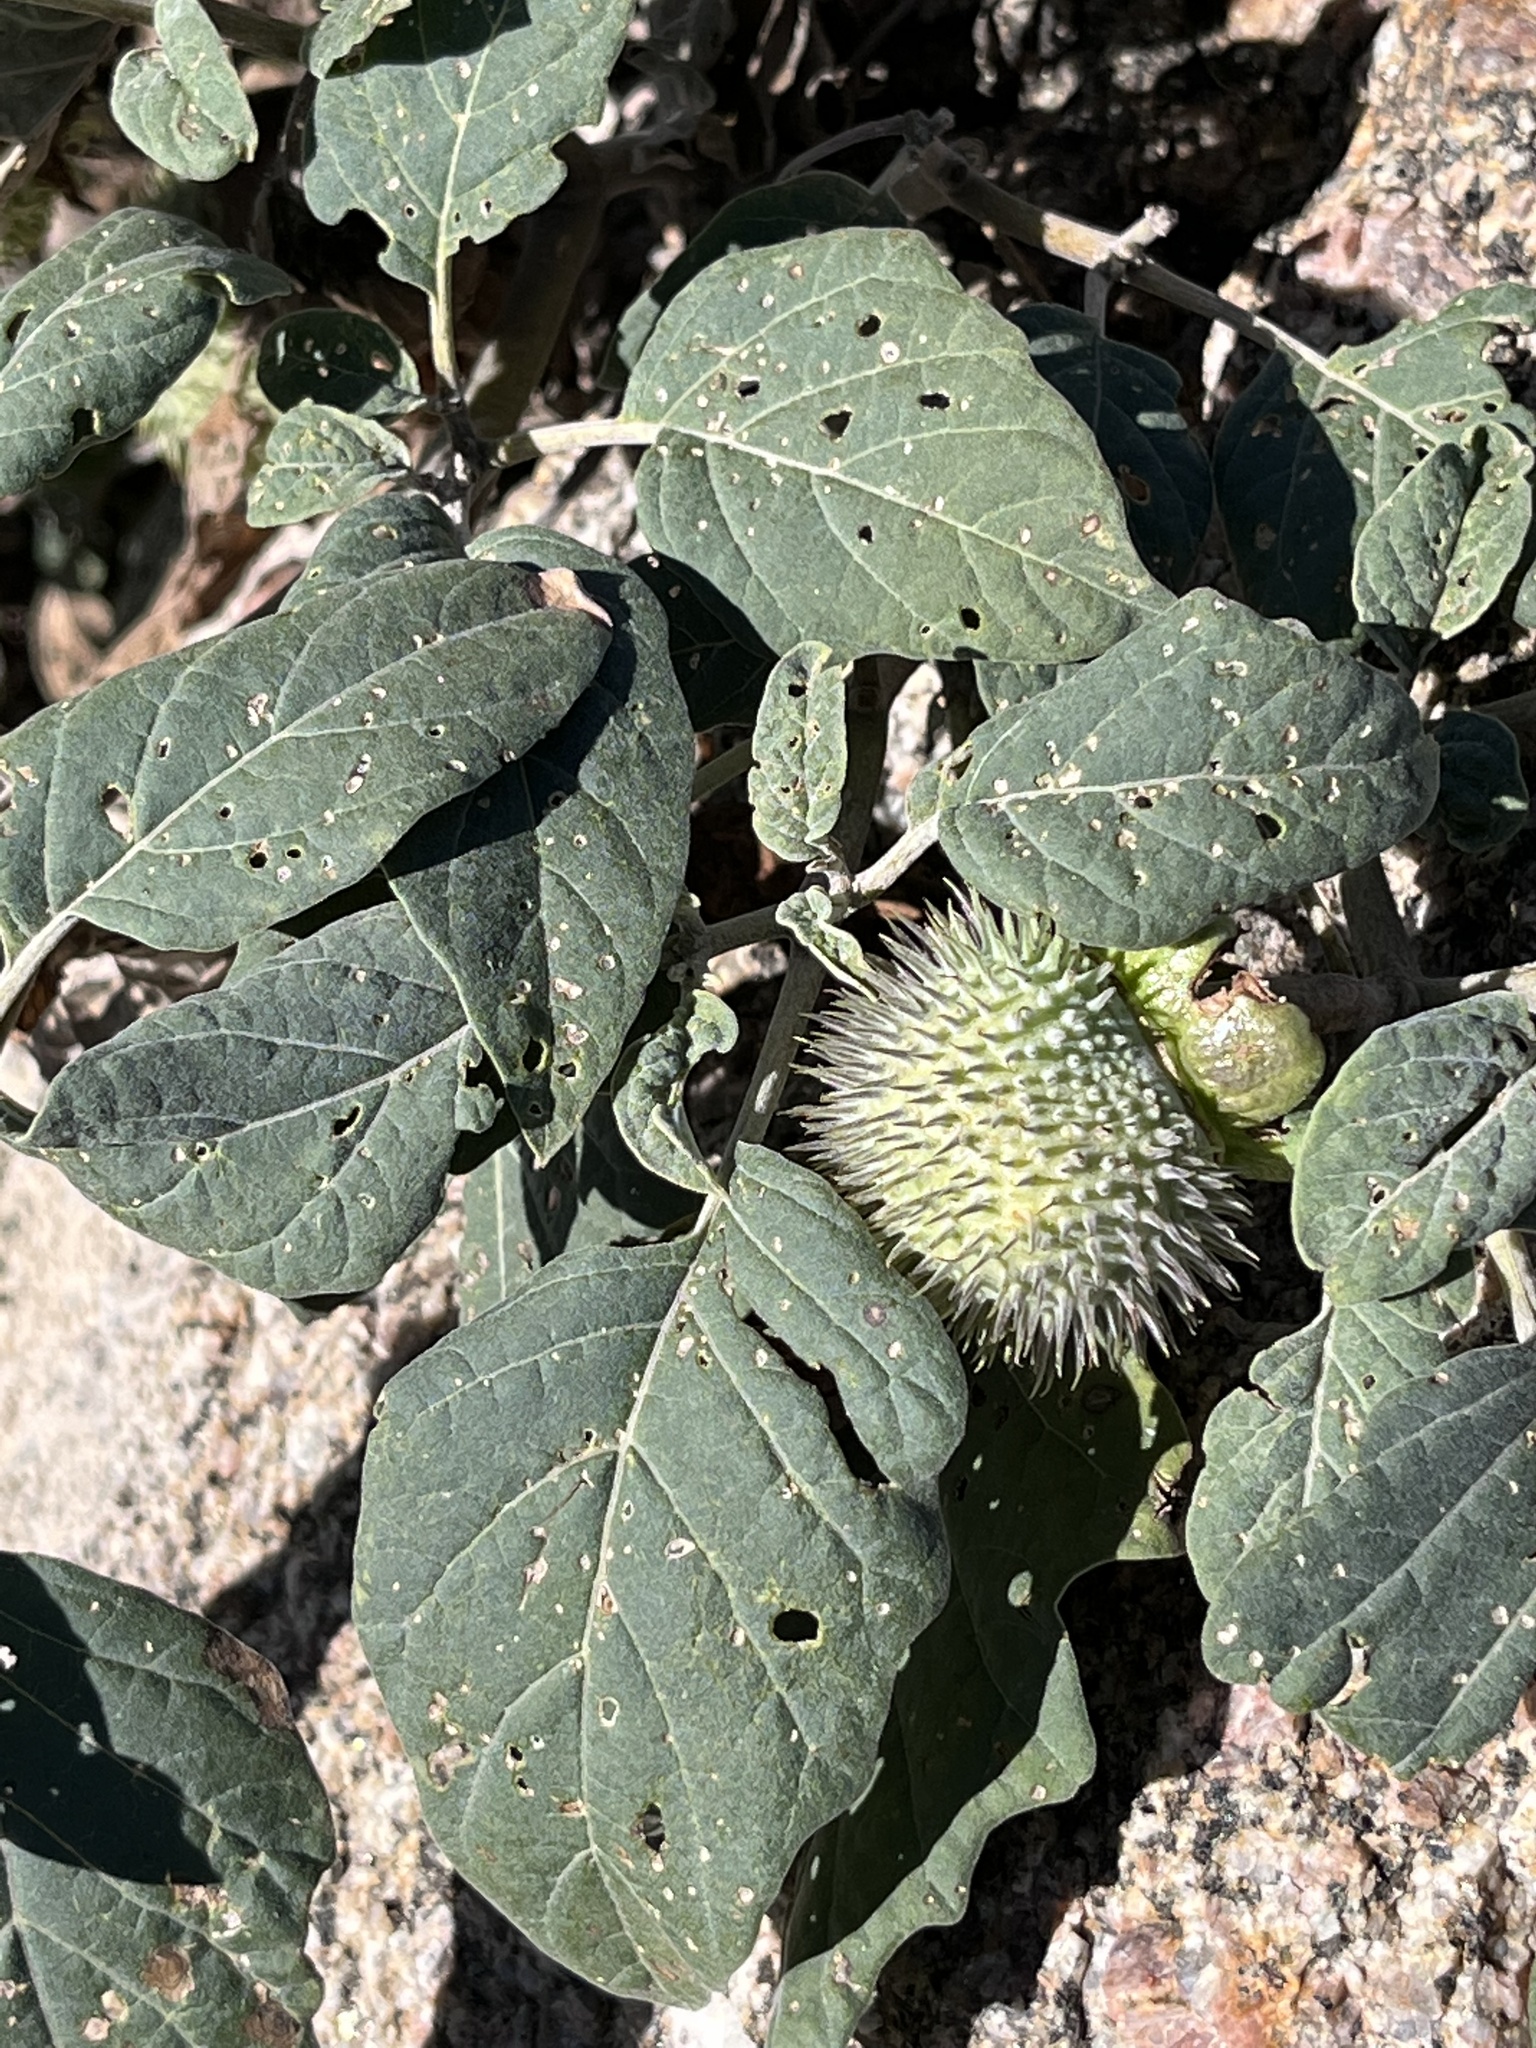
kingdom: Plantae
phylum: Tracheophyta
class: Magnoliopsida
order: Solanales
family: Solanaceae
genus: Datura
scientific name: Datura wrightii
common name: Sacred thorn-apple
